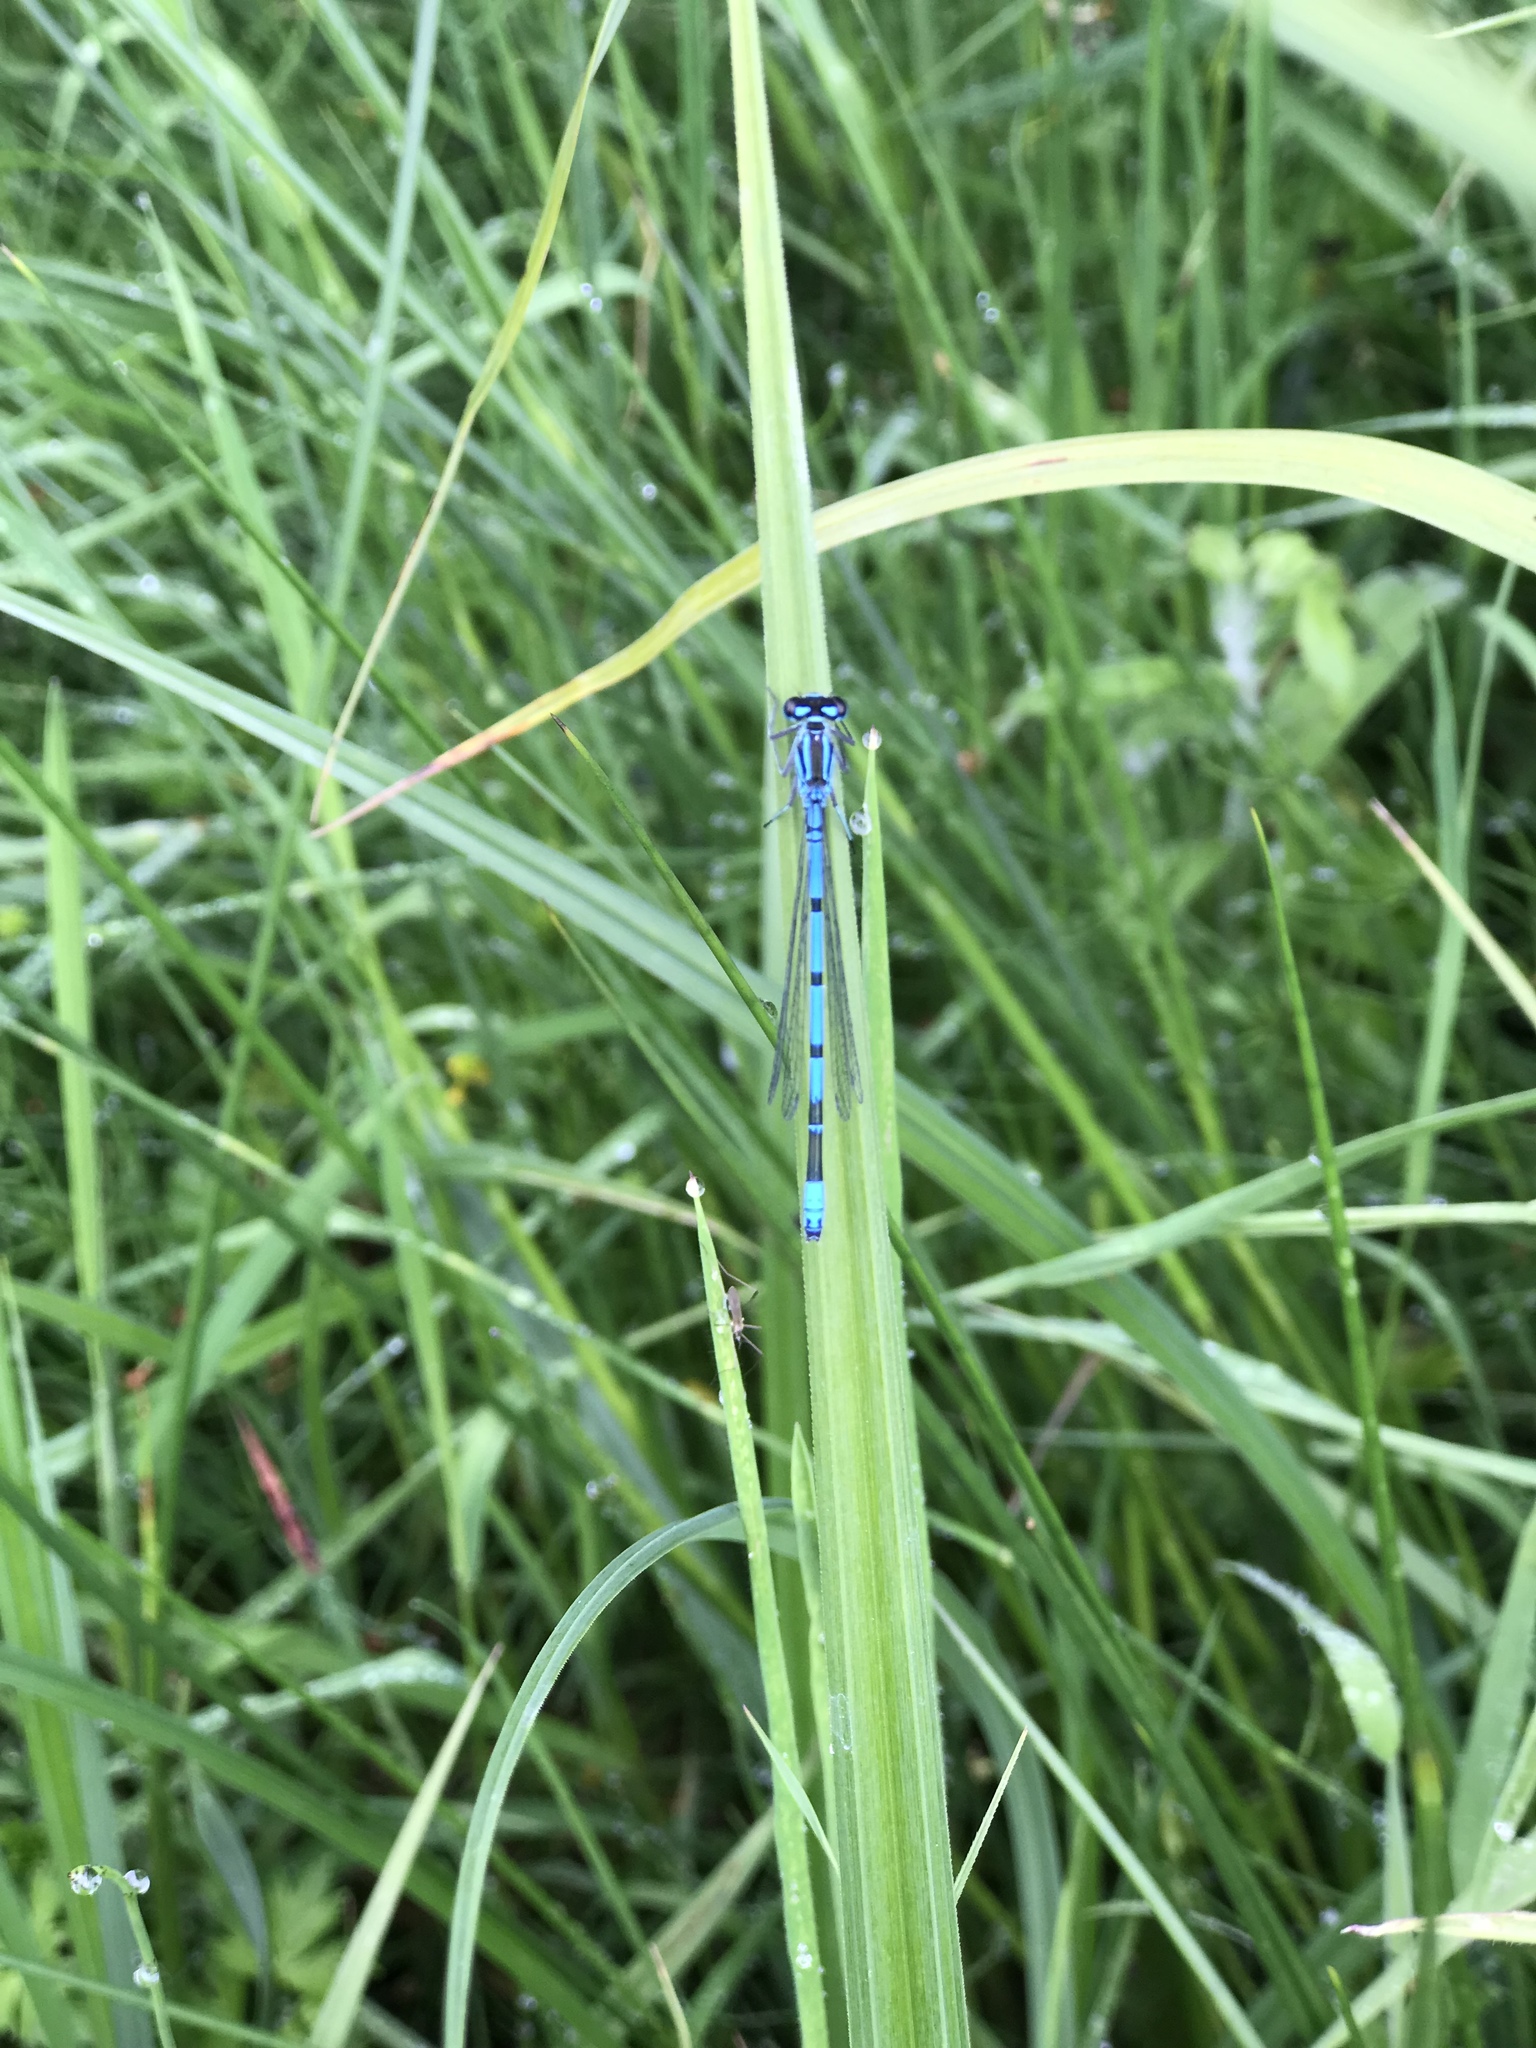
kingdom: Animalia
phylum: Arthropoda
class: Insecta
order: Odonata
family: Coenagrionidae
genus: Coenagrion
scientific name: Coenagrion puella
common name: Azure damselfly
